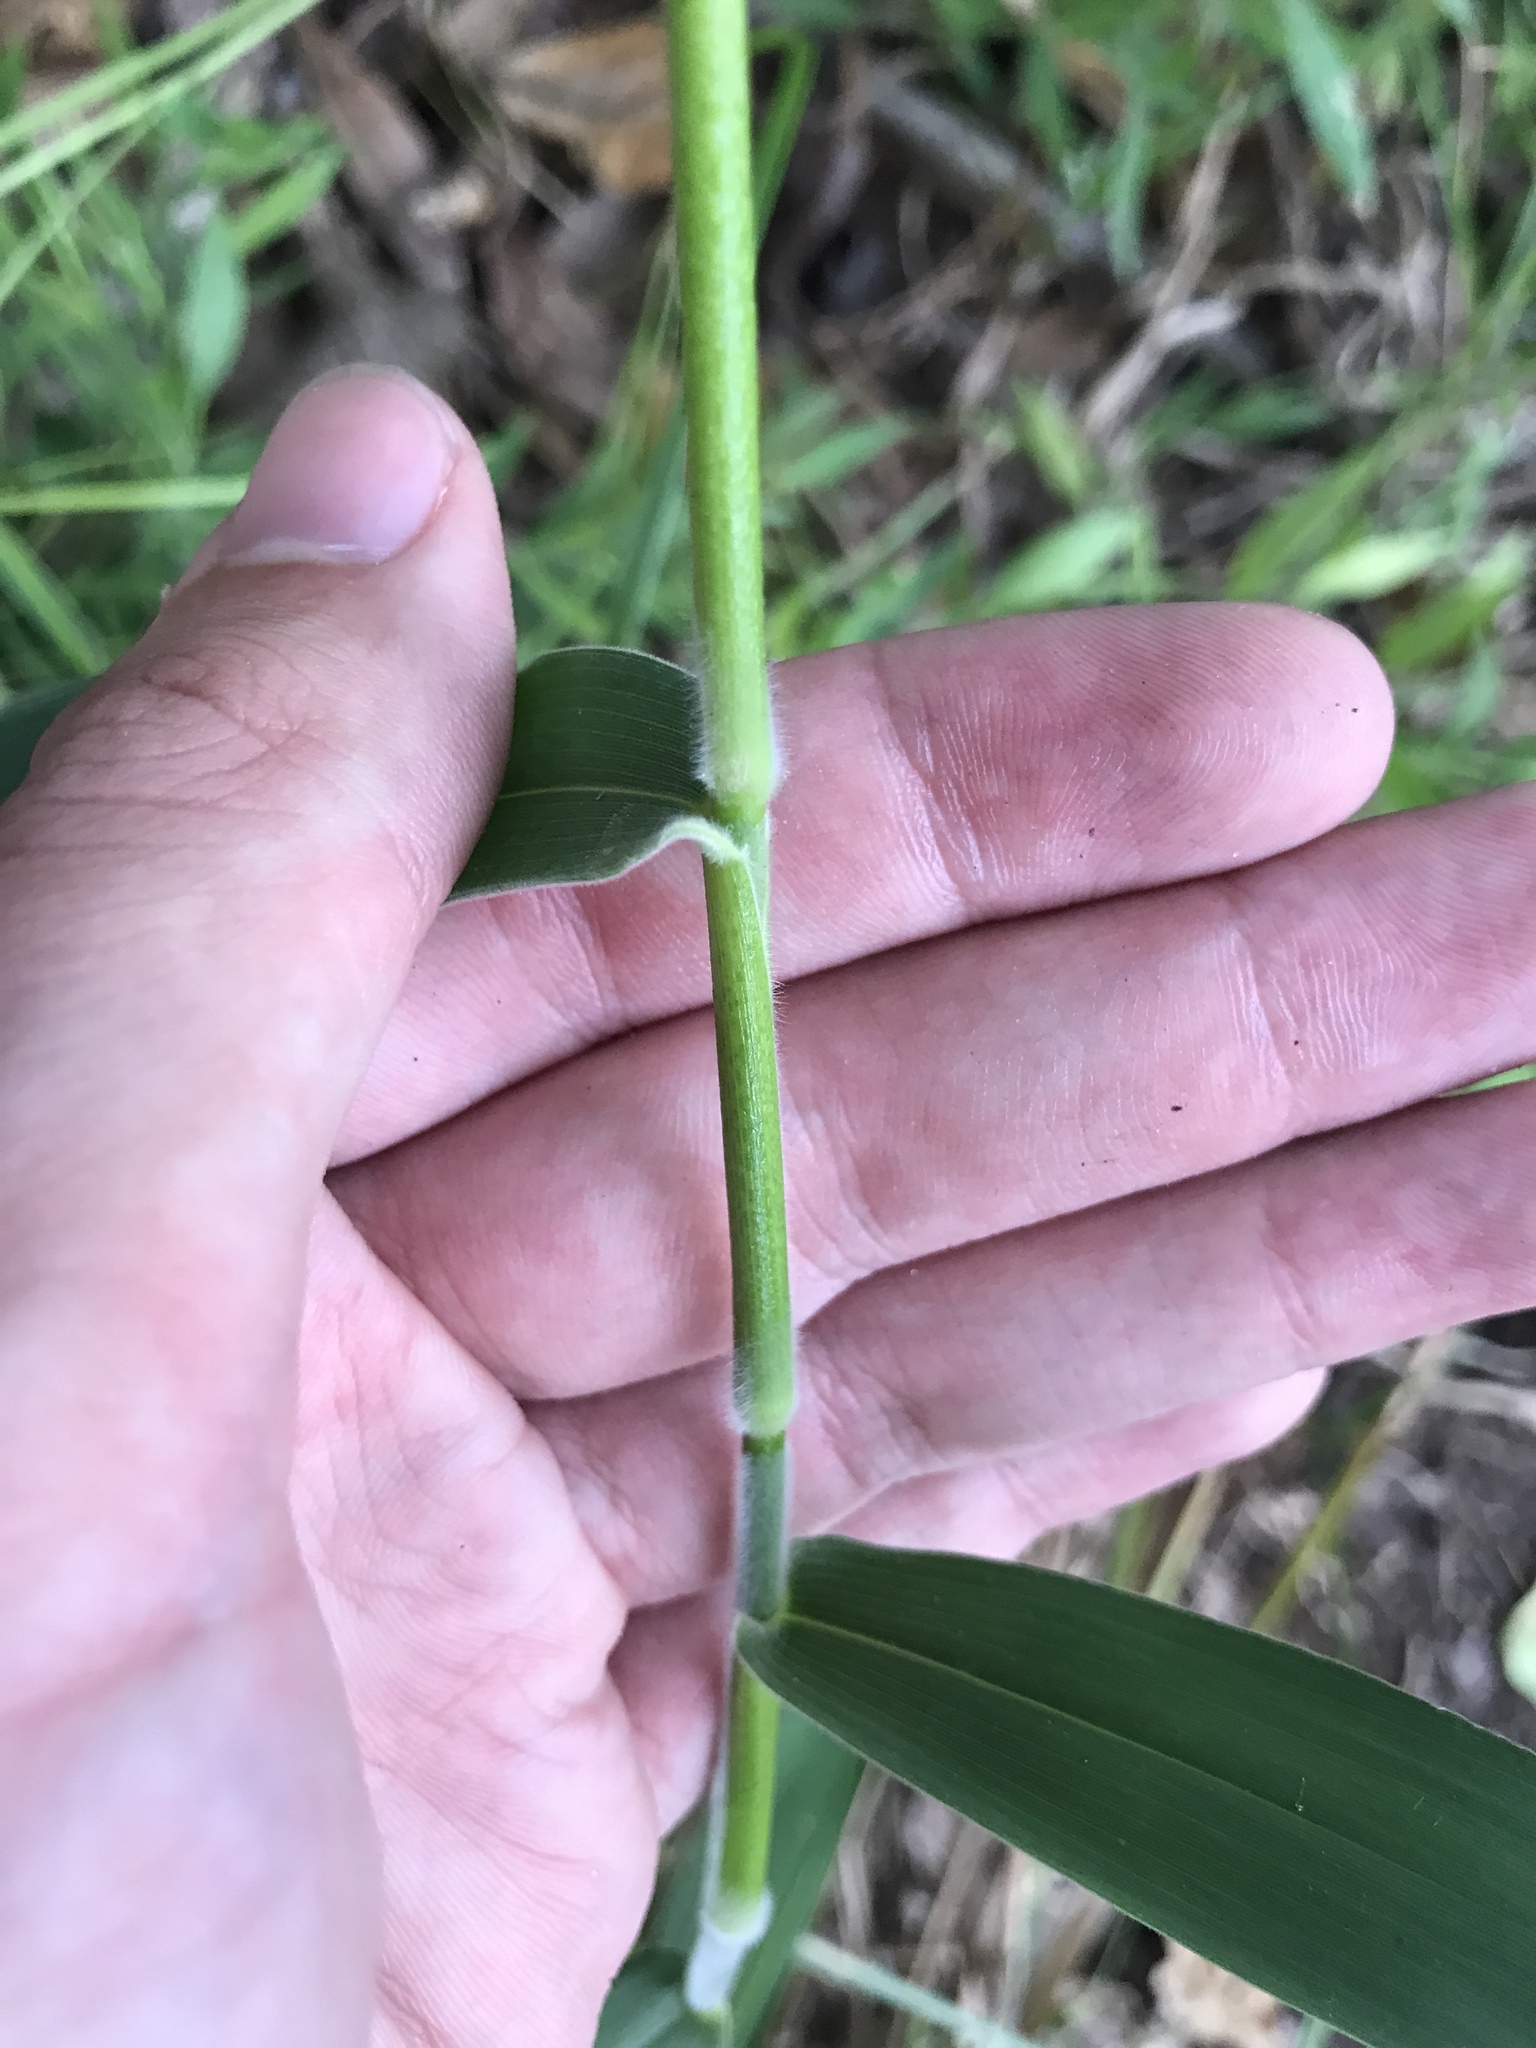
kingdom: Plantae
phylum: Tracheophyta
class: Liliopsida
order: Poales
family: Poaceae
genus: Dichanthelium
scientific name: Dichanthelium scoparium
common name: Velvety panic grass
